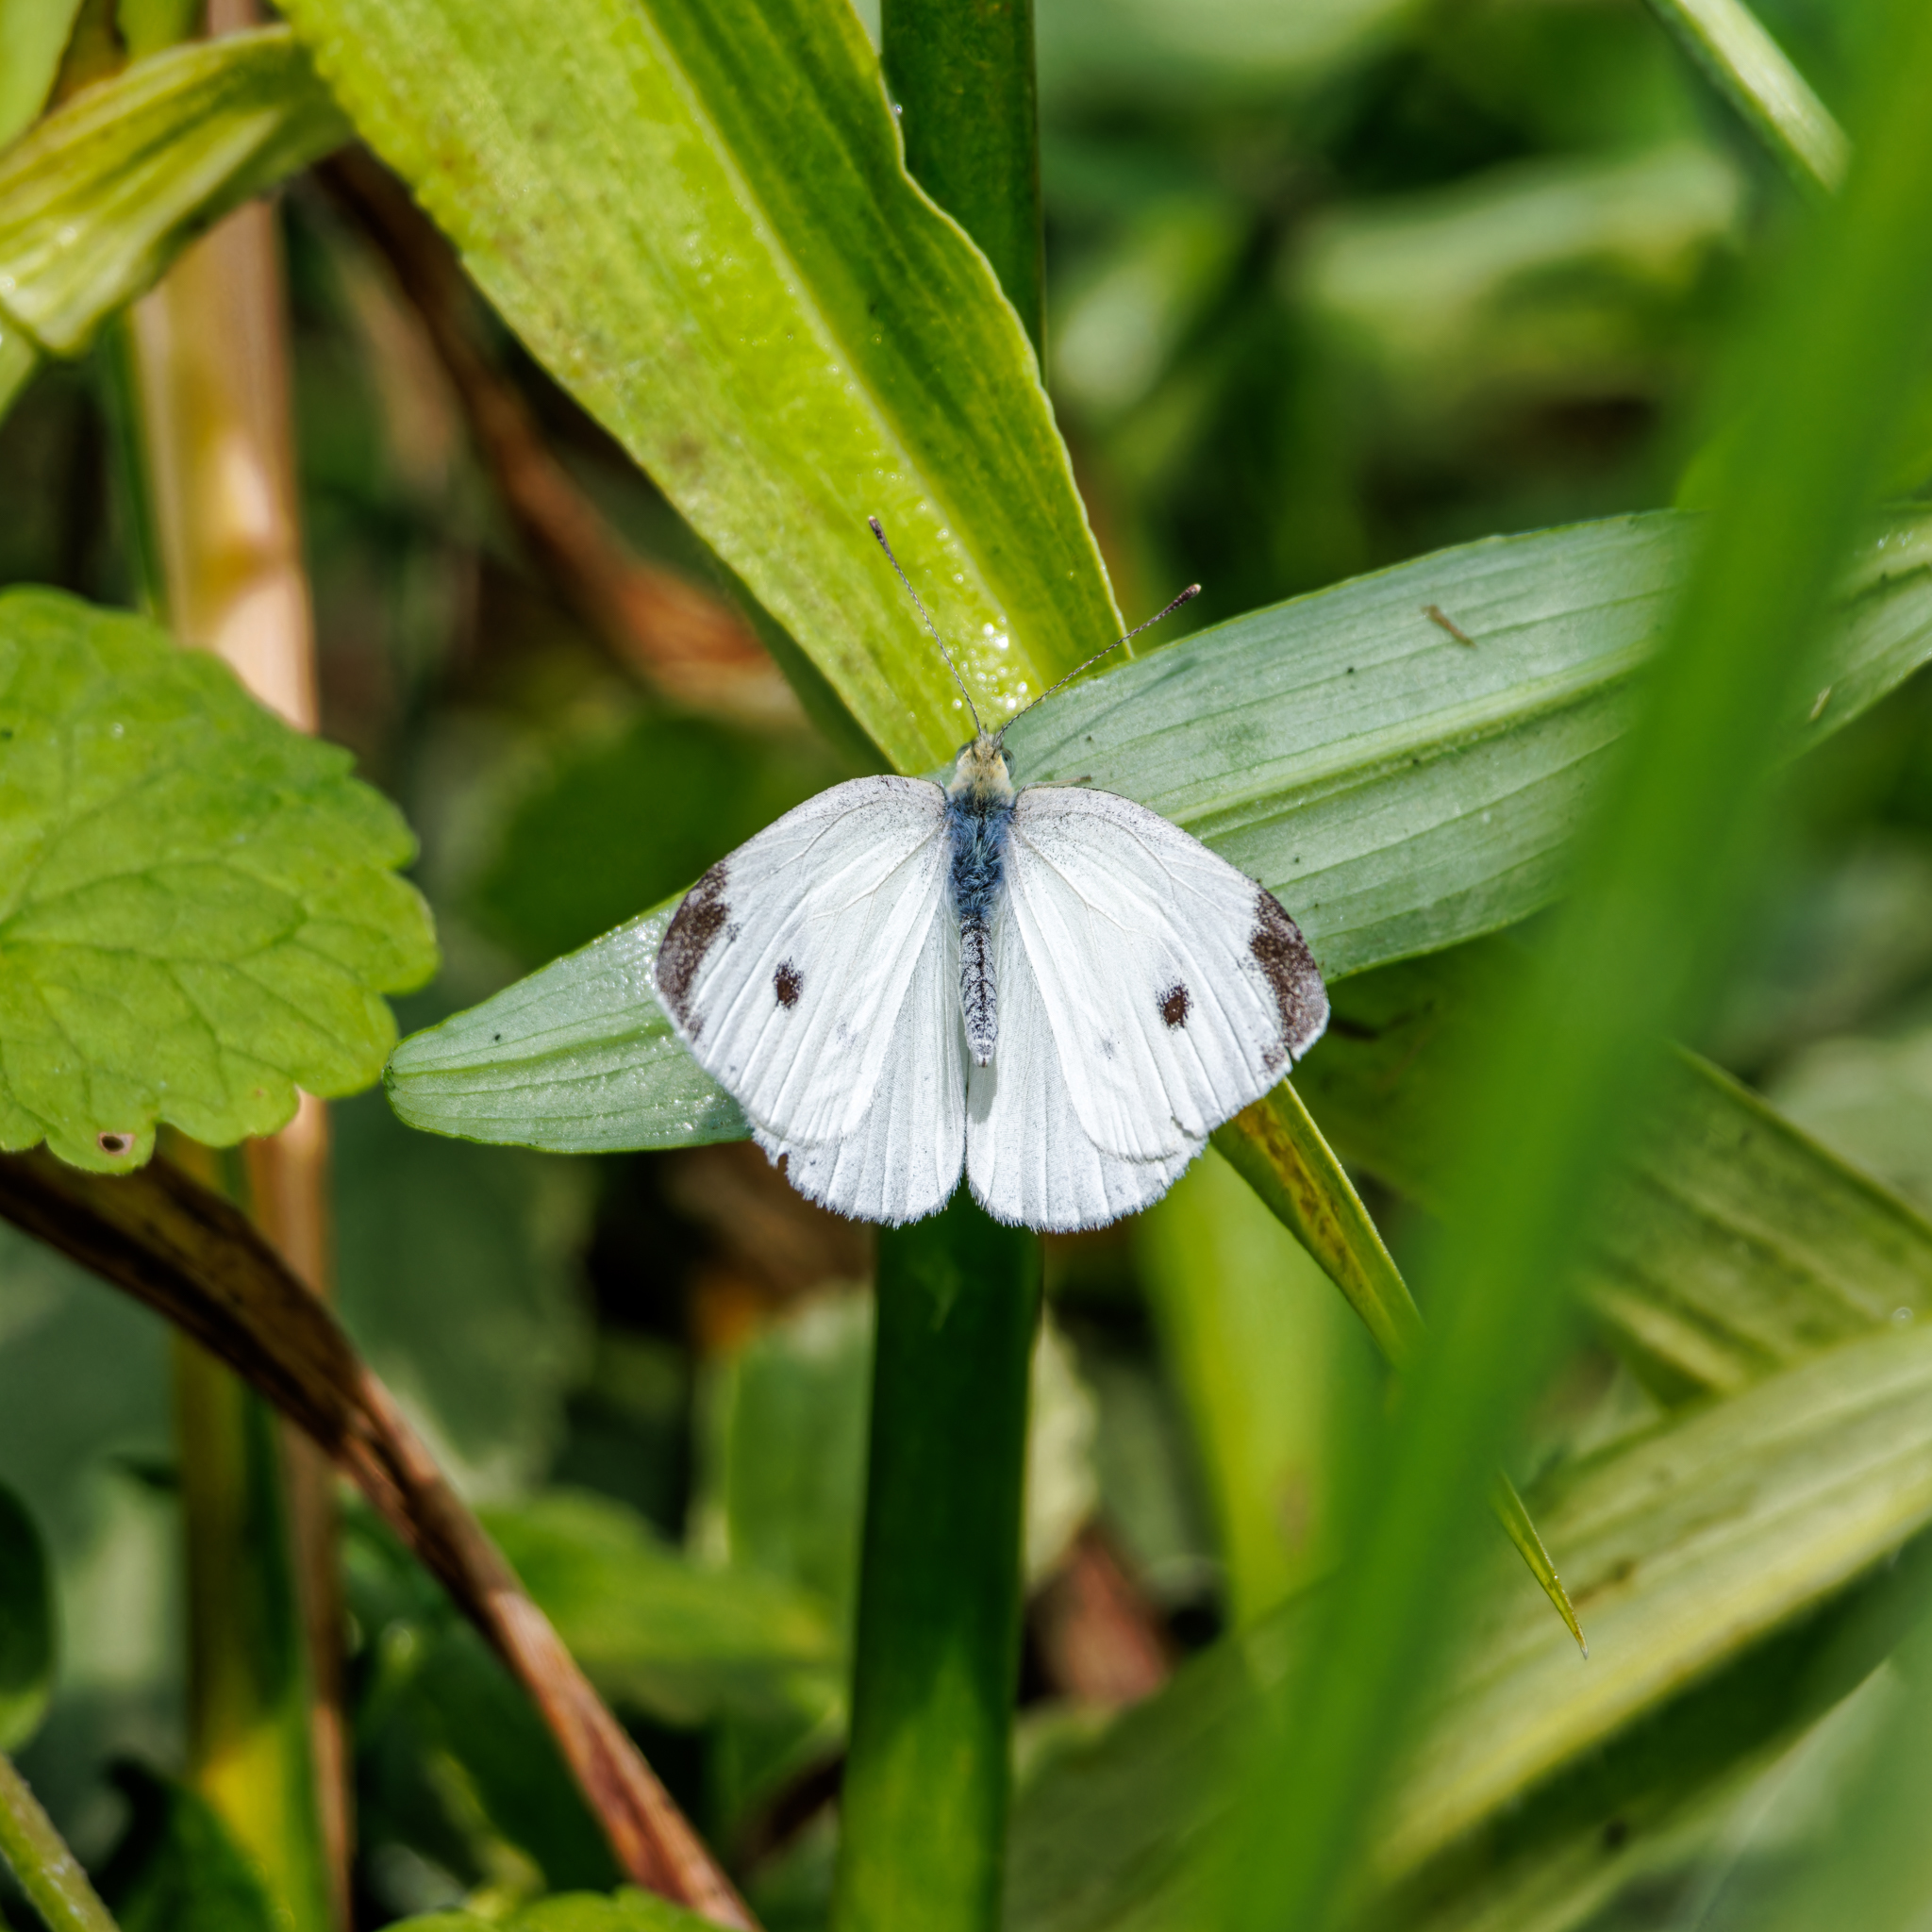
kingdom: Animalia
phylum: Arthropoda
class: Insecta
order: Lepidoptera
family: Pieridae
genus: Pieris
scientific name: Pieris rapae
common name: Small white
